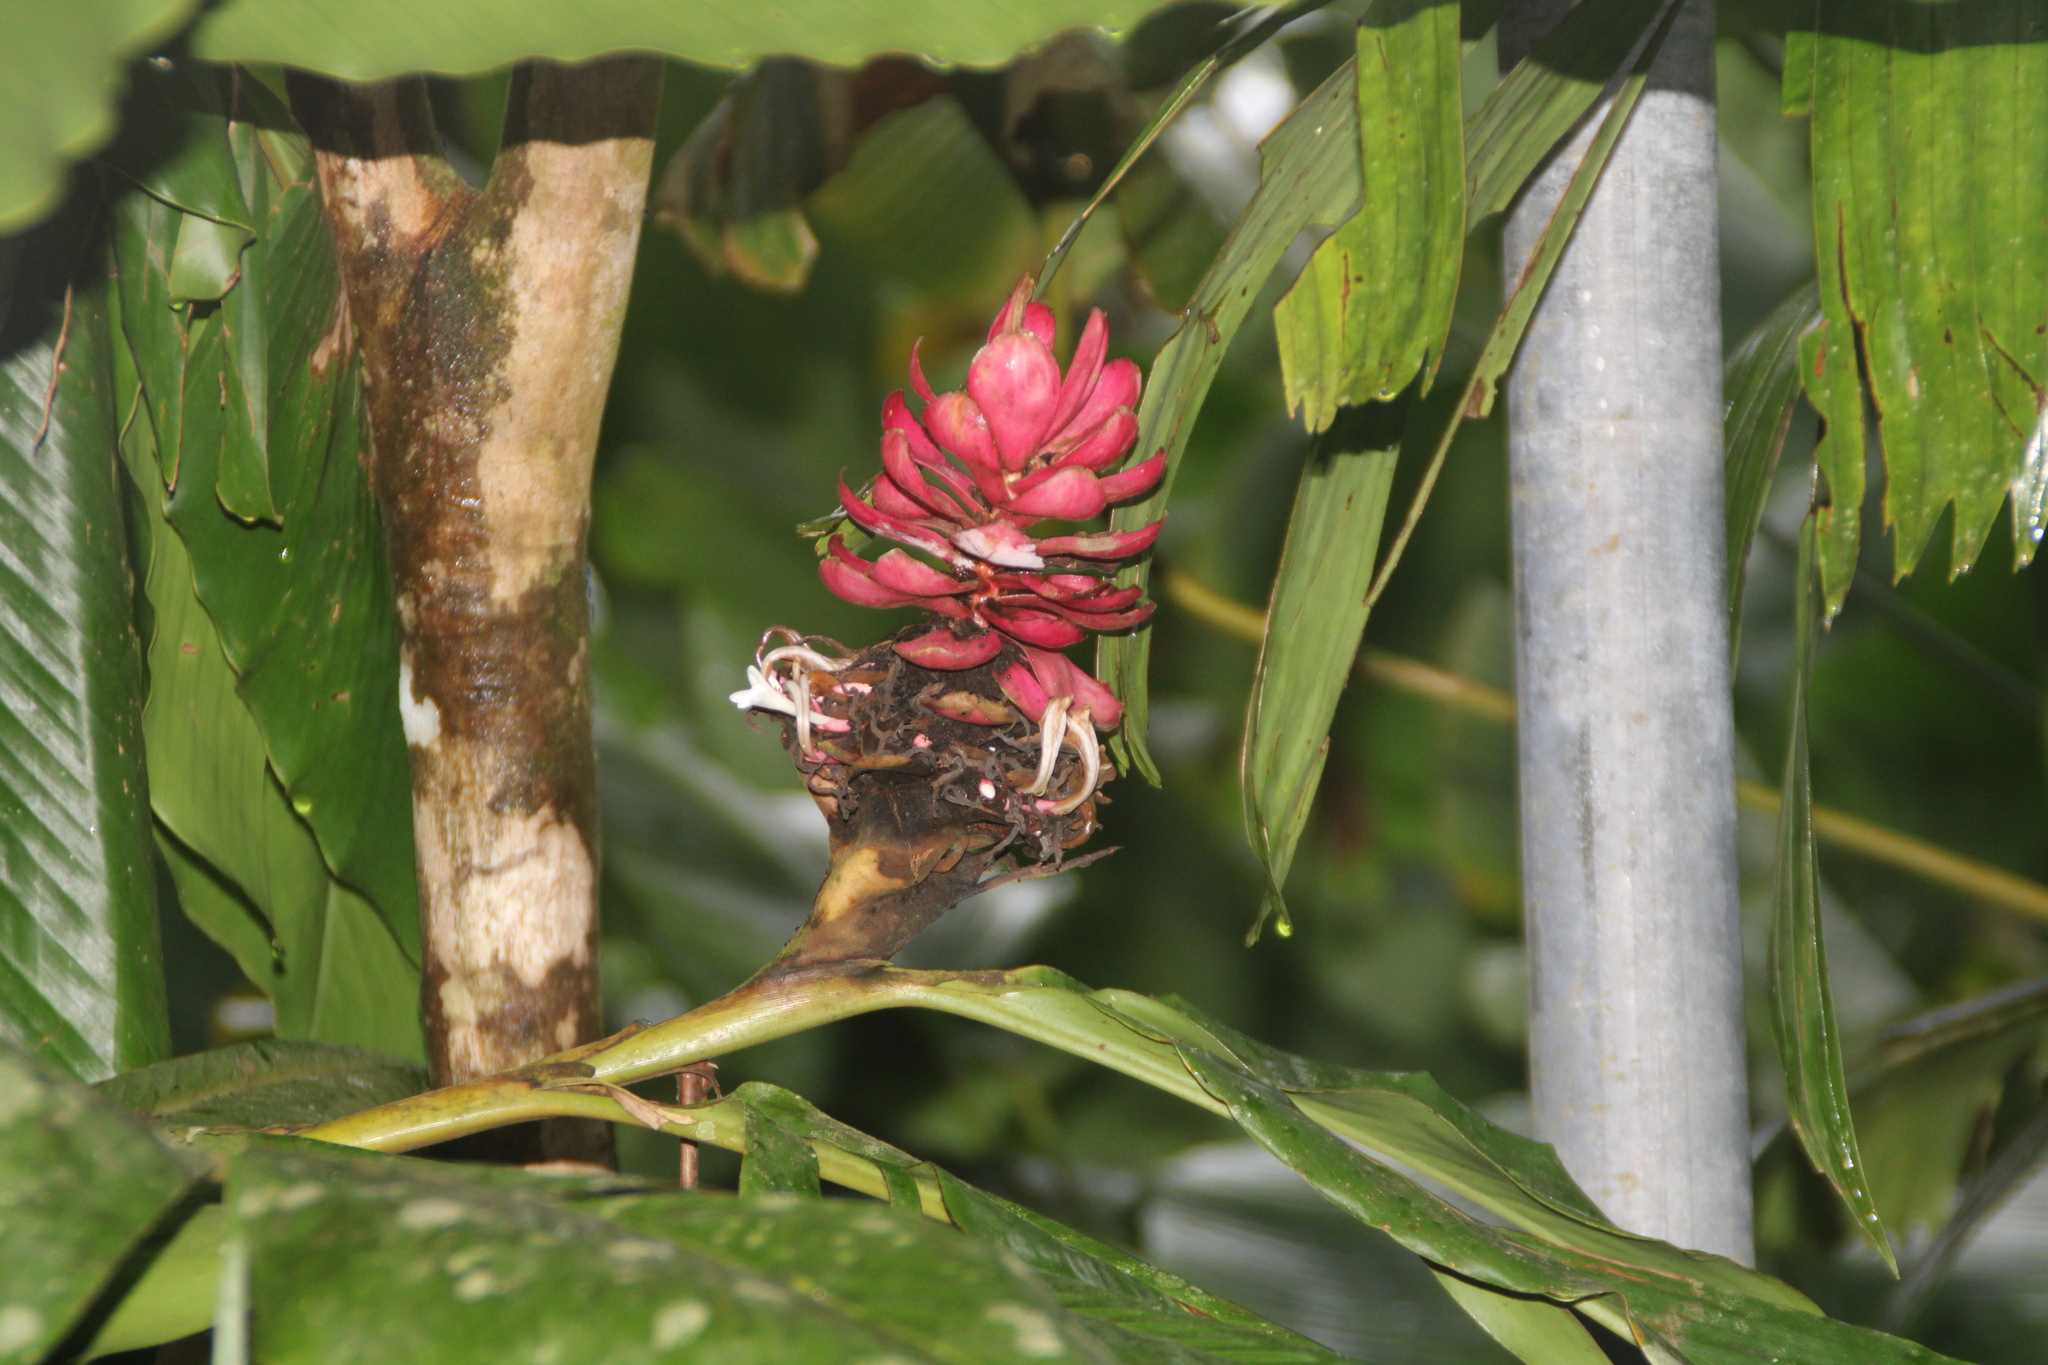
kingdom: Plantae
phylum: Tracheophyta
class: Liliopsida
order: Zingiberales
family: Zingiberaceae
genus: Alpinia
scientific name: Alpinia purpurata
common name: Red ginger
